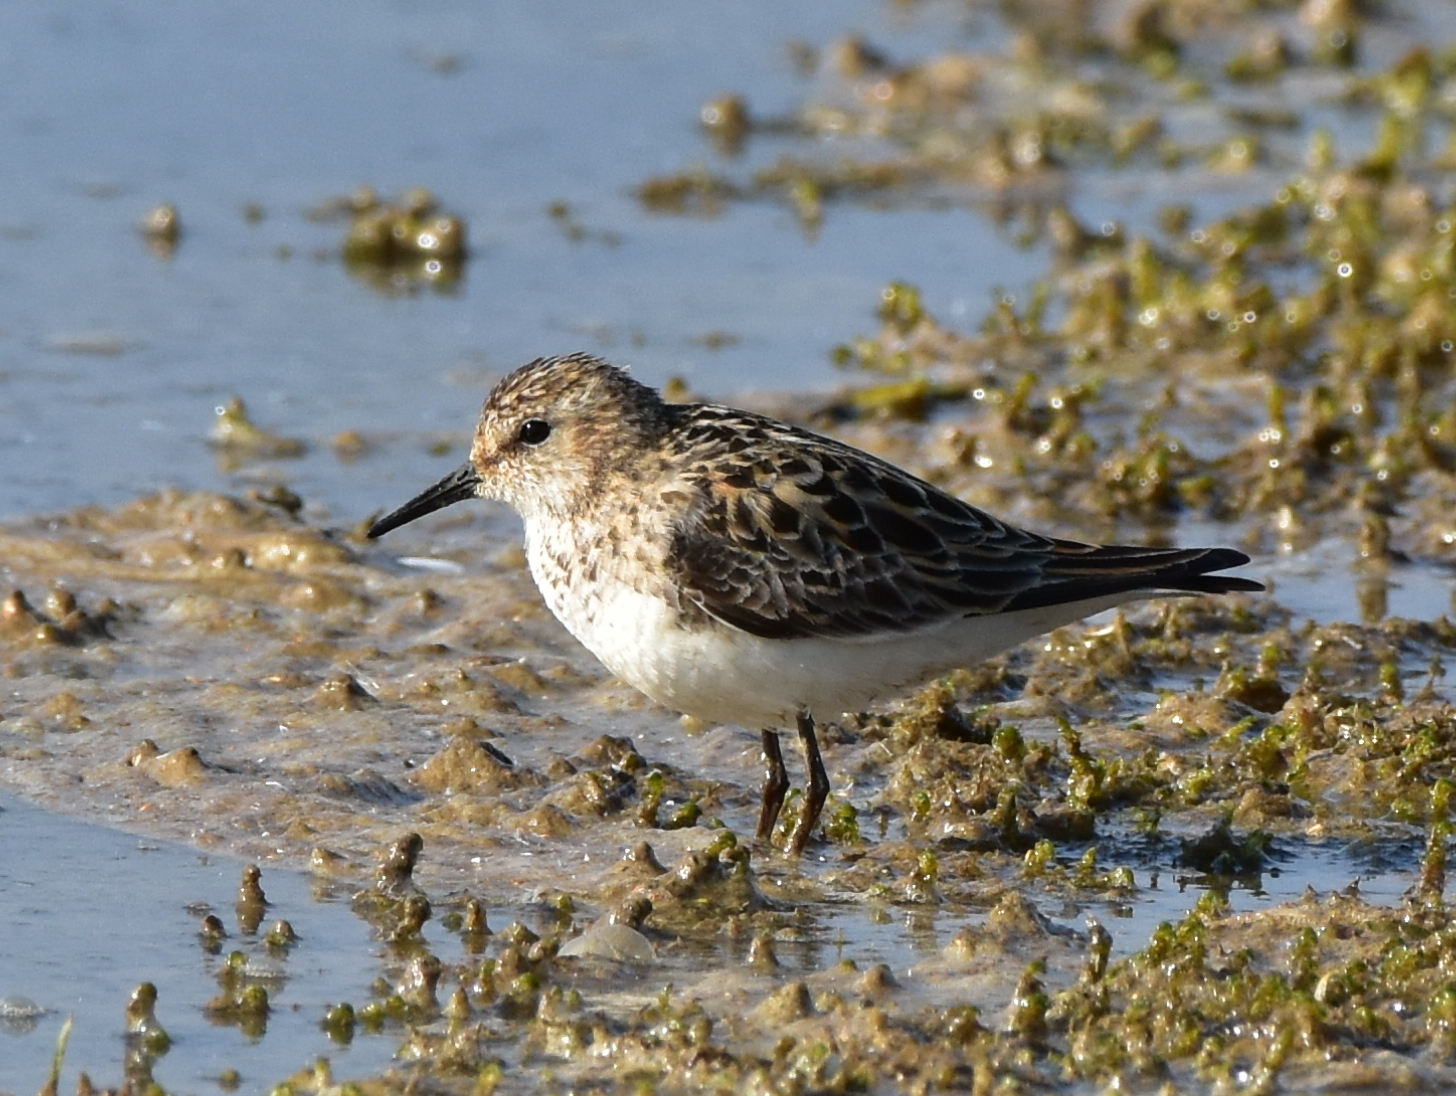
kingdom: Animalia
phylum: Chordata
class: Aves
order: Charadriiformes
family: Scolopacidae
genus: Calidris
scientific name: Calidris minuta
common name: Little stint
